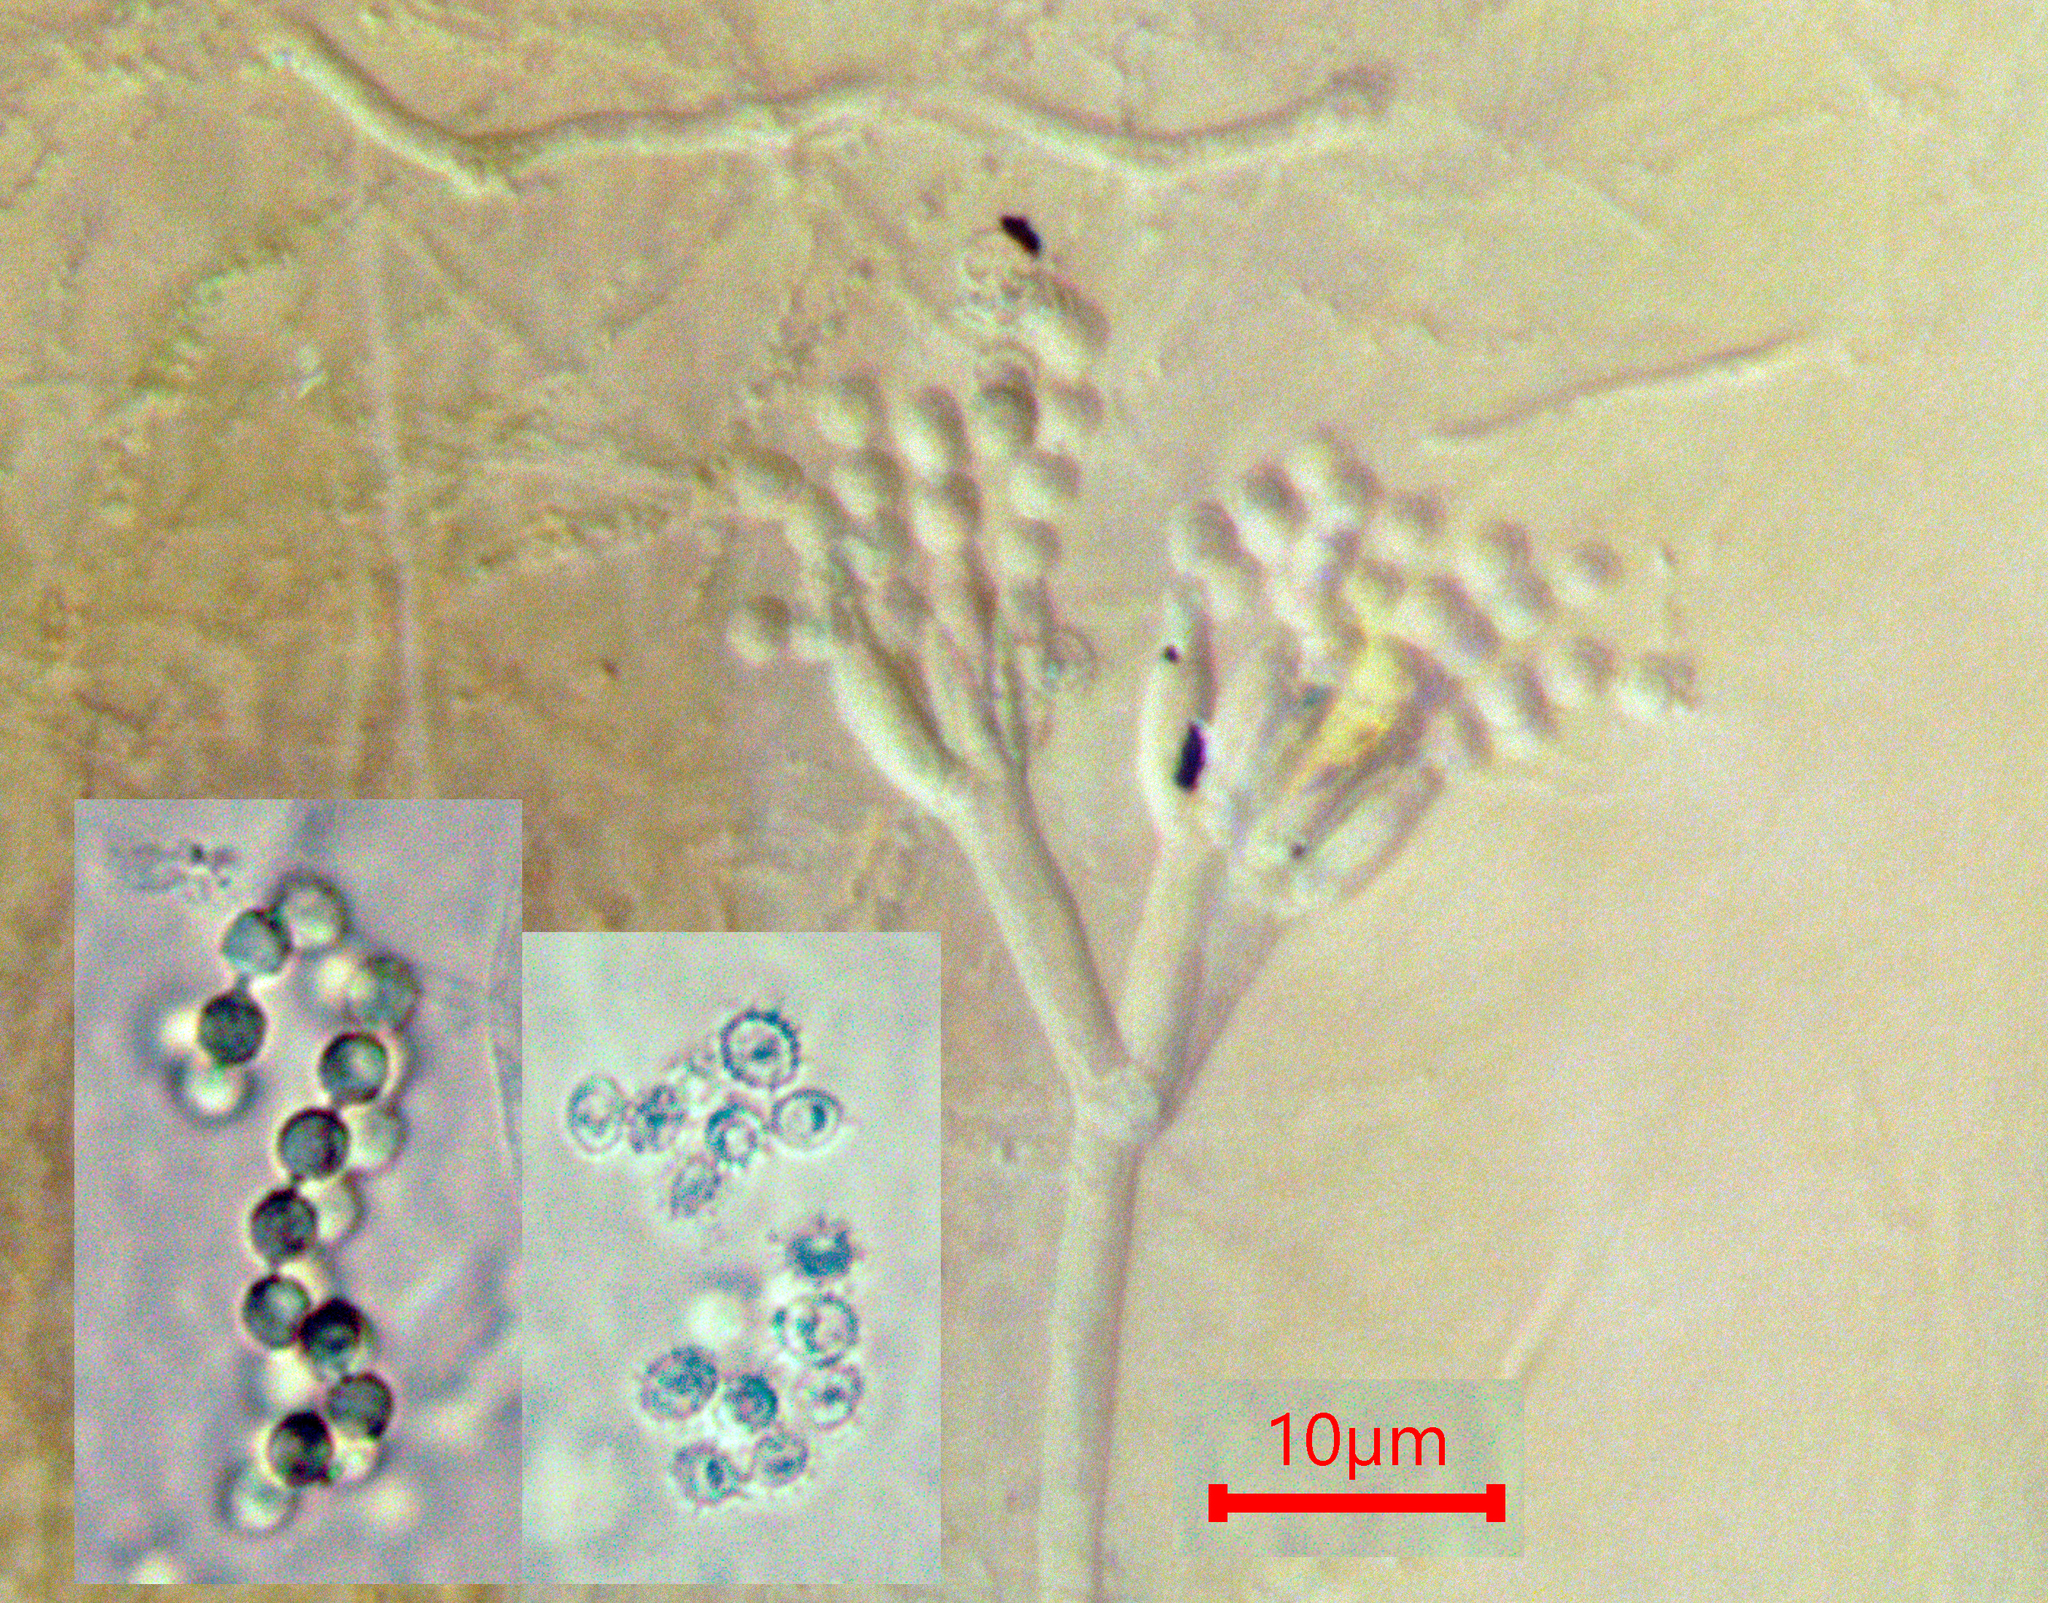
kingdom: Fungi
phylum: Ascomycota
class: Sordariomycetes
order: Hypocreales
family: Clavicipitaceae
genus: Keithomyces
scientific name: Keithomyces carneus
